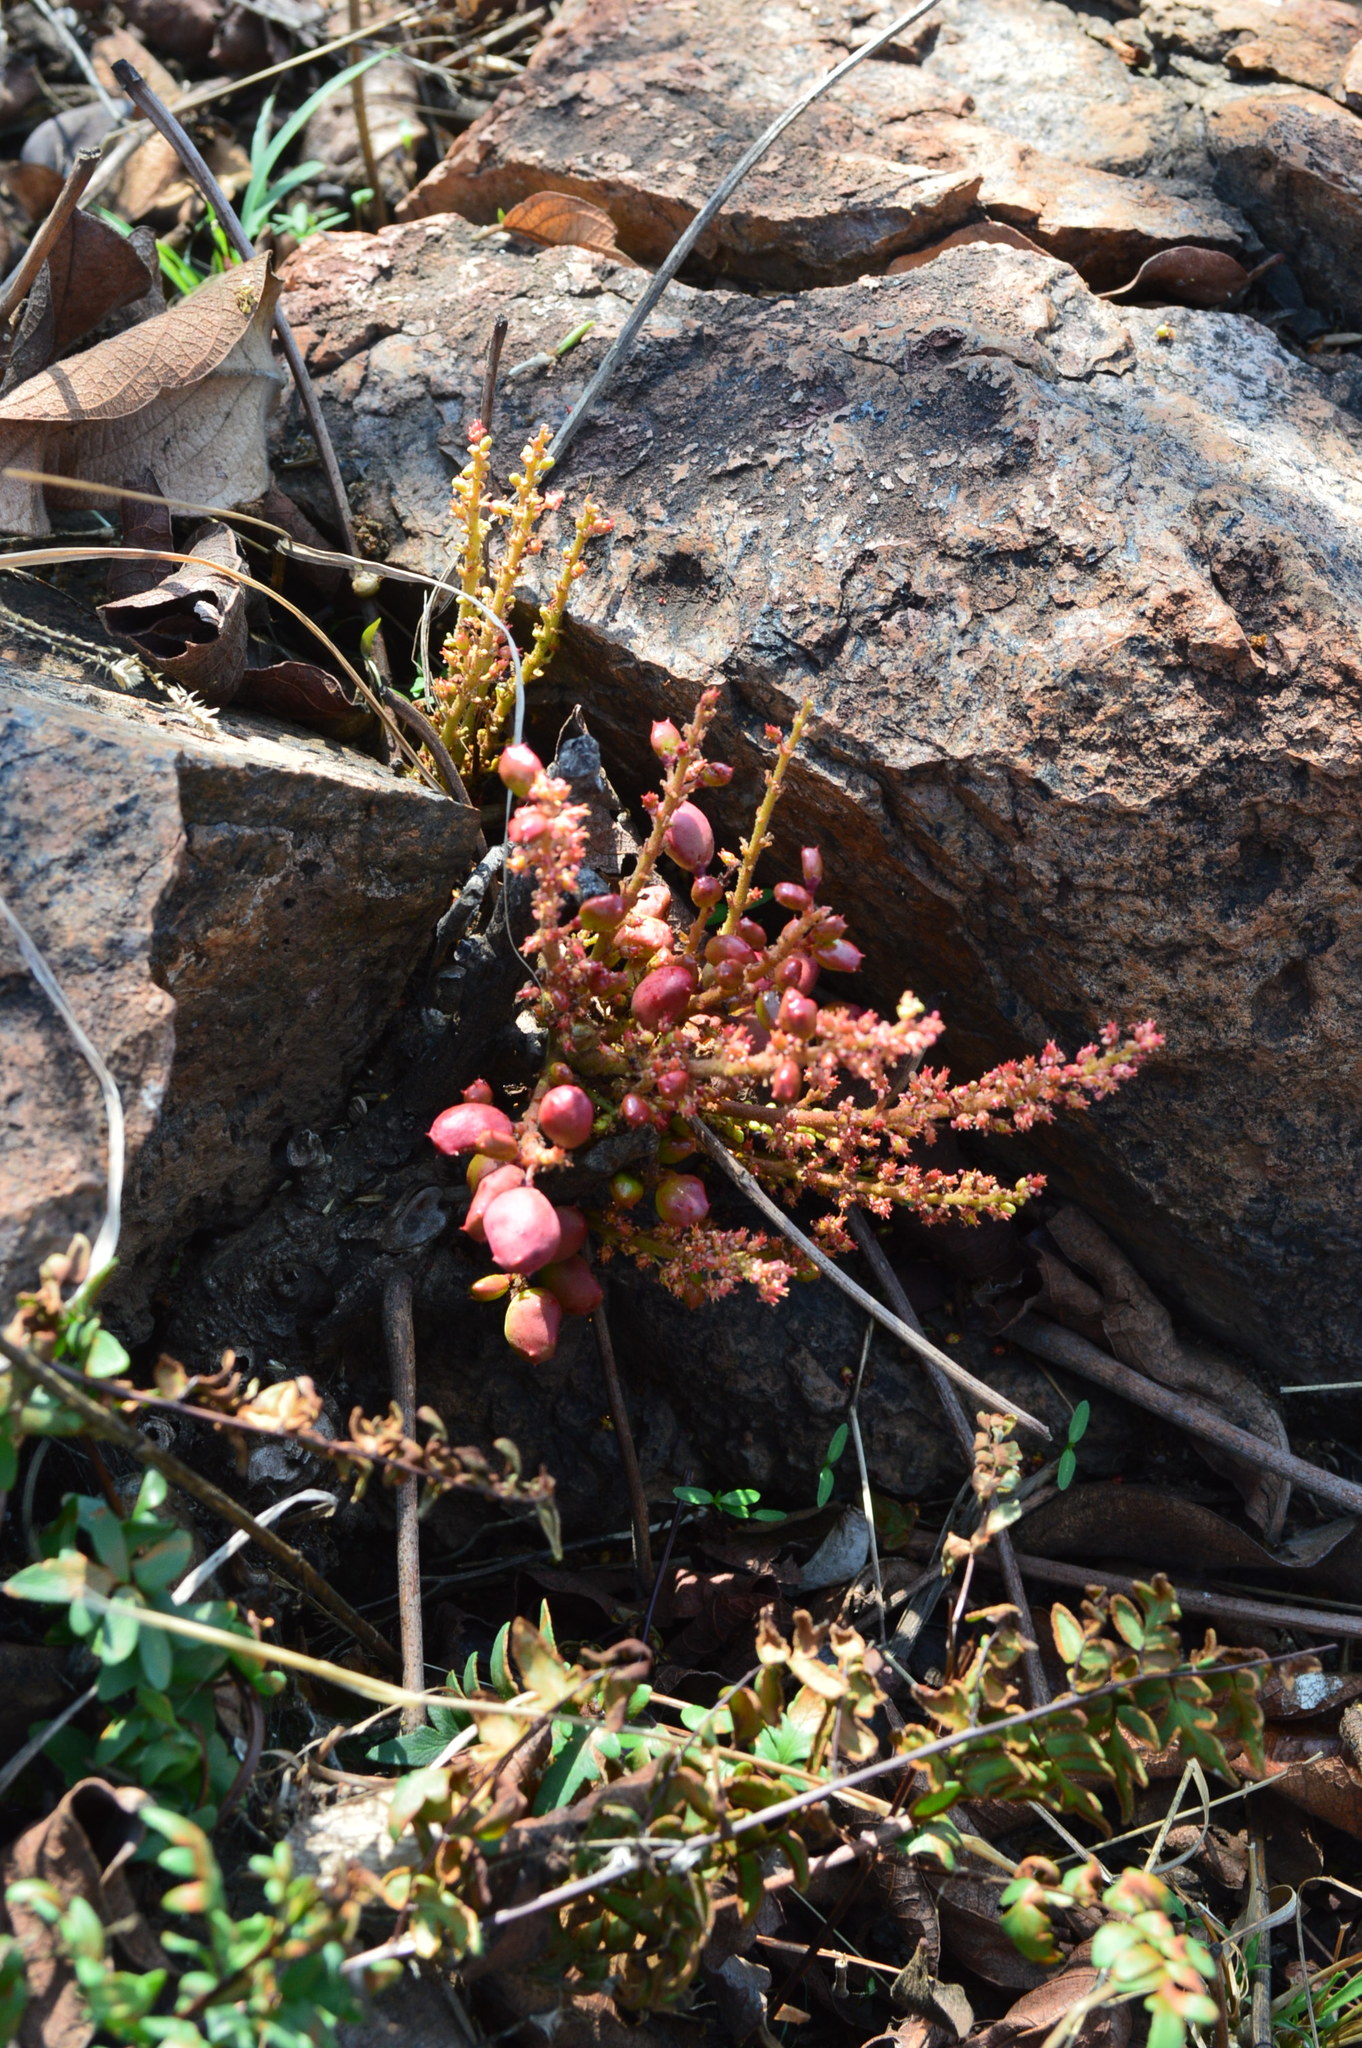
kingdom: Plantae
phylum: Tracheophyta
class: Magnoliopsida
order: Sapindales
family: Anacardiaceae
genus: Lannea
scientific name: Lannea edulis
